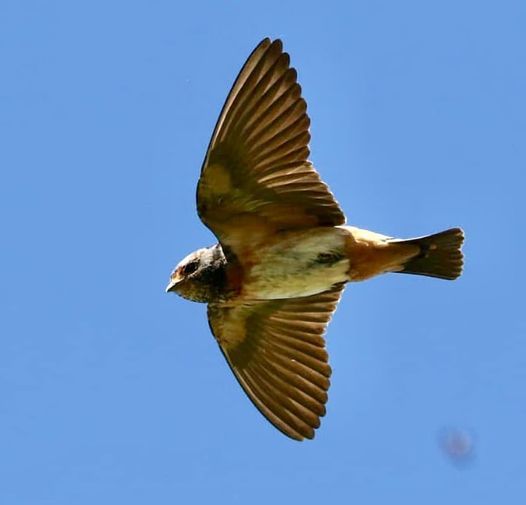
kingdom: Animalia
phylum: Chordata
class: Aves
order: Passeriformes
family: Hirundinidae
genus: Petrochelidon
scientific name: Petrochelidon spilodera
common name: South african swallow
